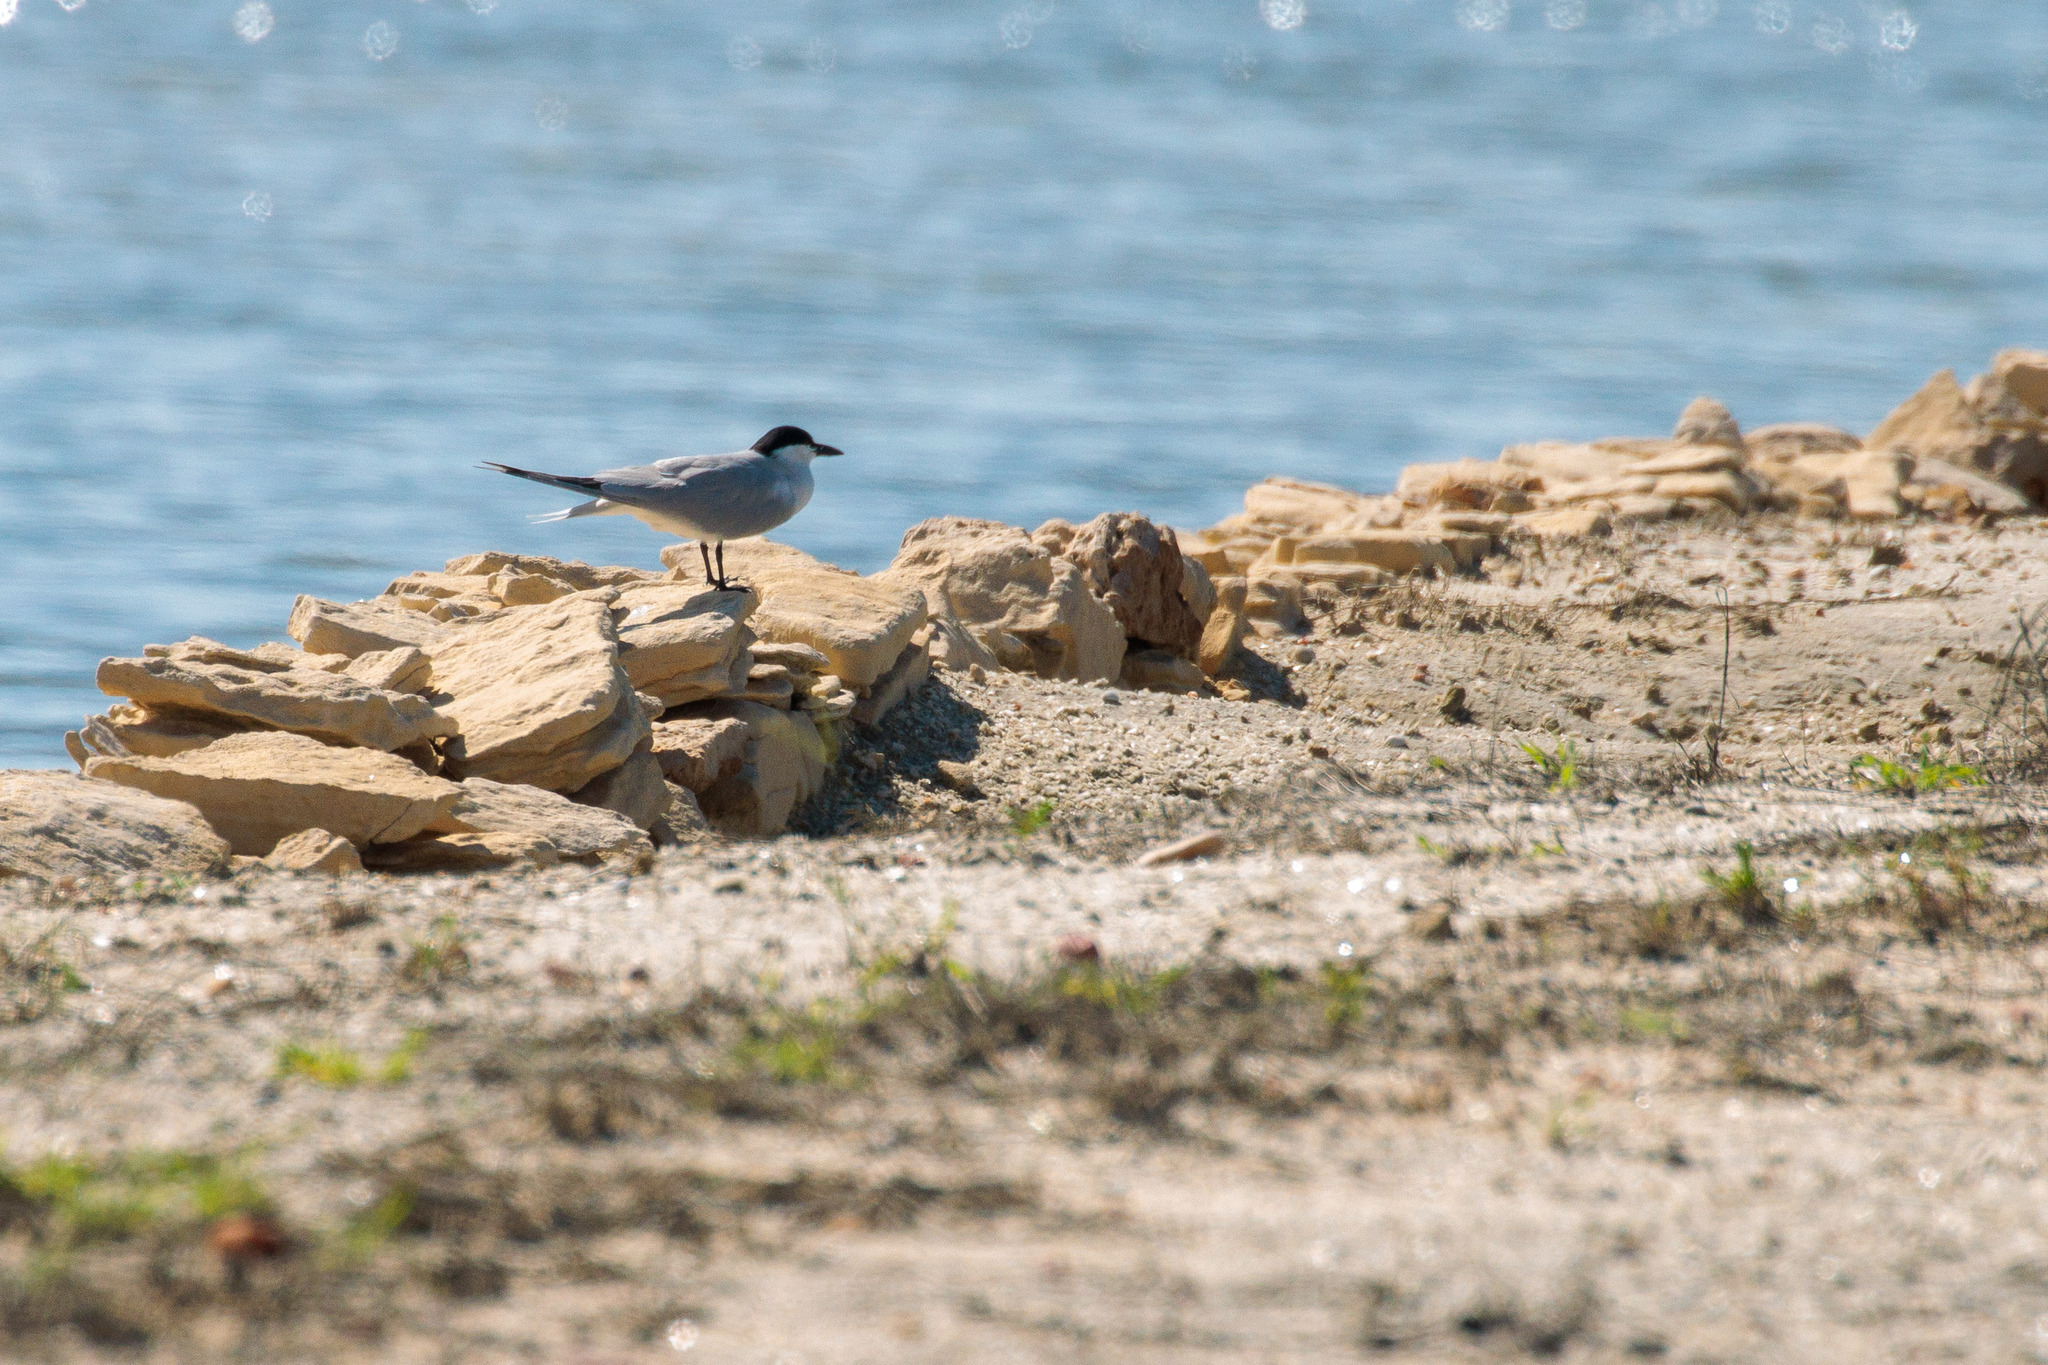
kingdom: Animalia
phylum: Chordata
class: Aves
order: Charadriiformes
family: Laridae
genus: Gelochelidon
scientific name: Gelochelidon nilotica
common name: Gull-billed tern
